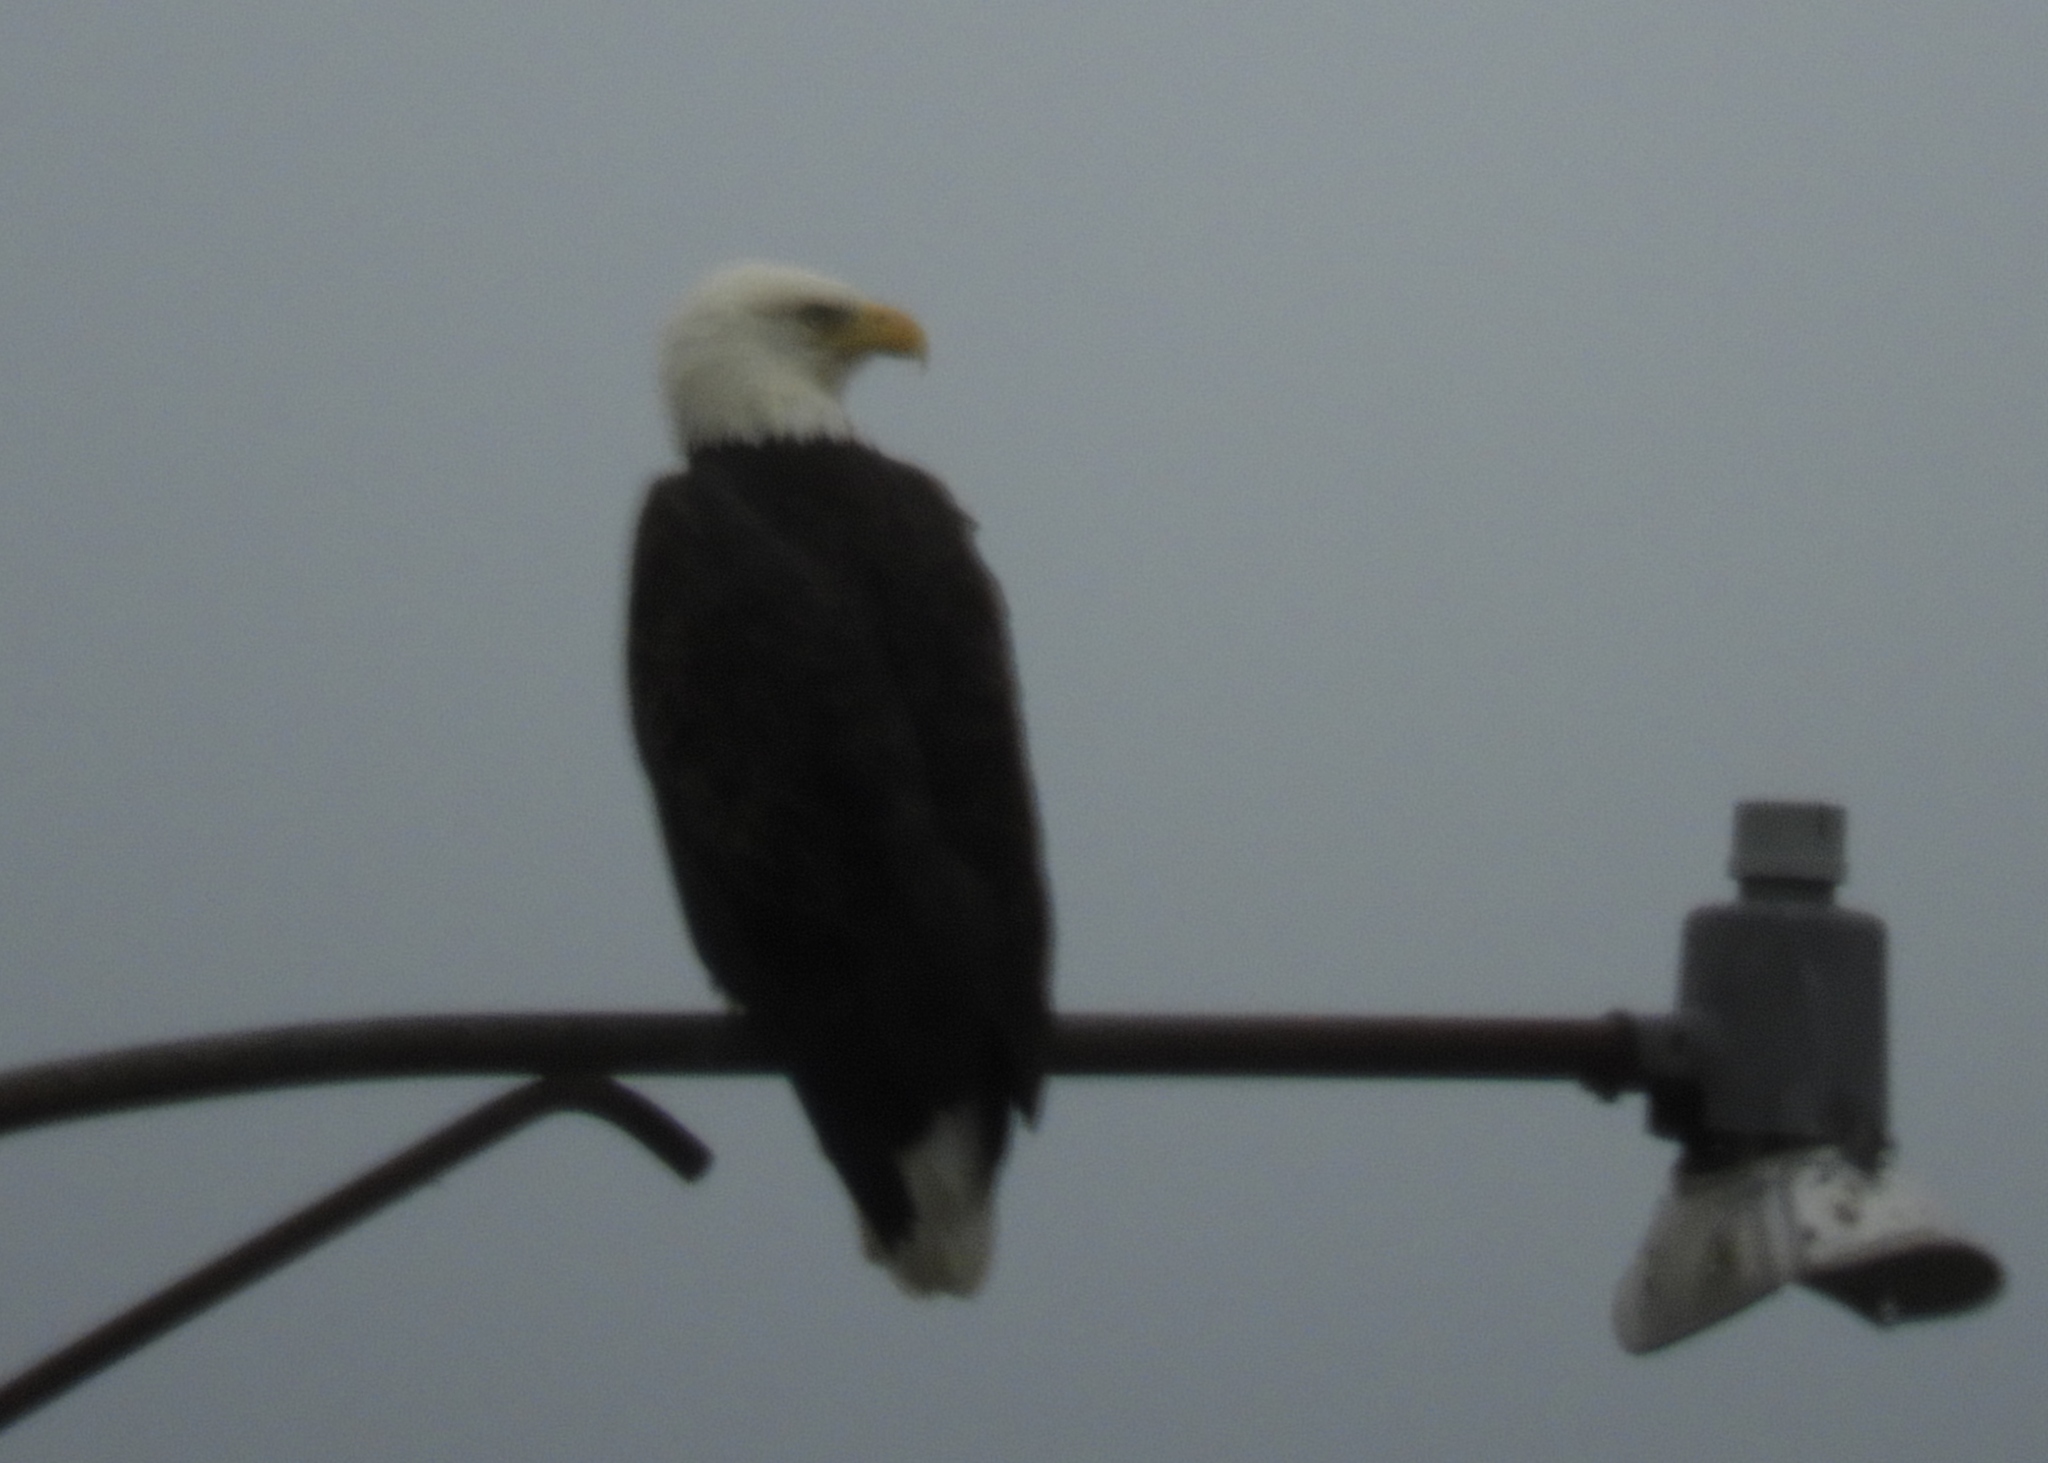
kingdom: Animalia
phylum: Chordata
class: Aves
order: Accipitriformes
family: Accipitridae
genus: Haliaeetus
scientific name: Haliaeetus leucocephalus
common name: Bald eagle
